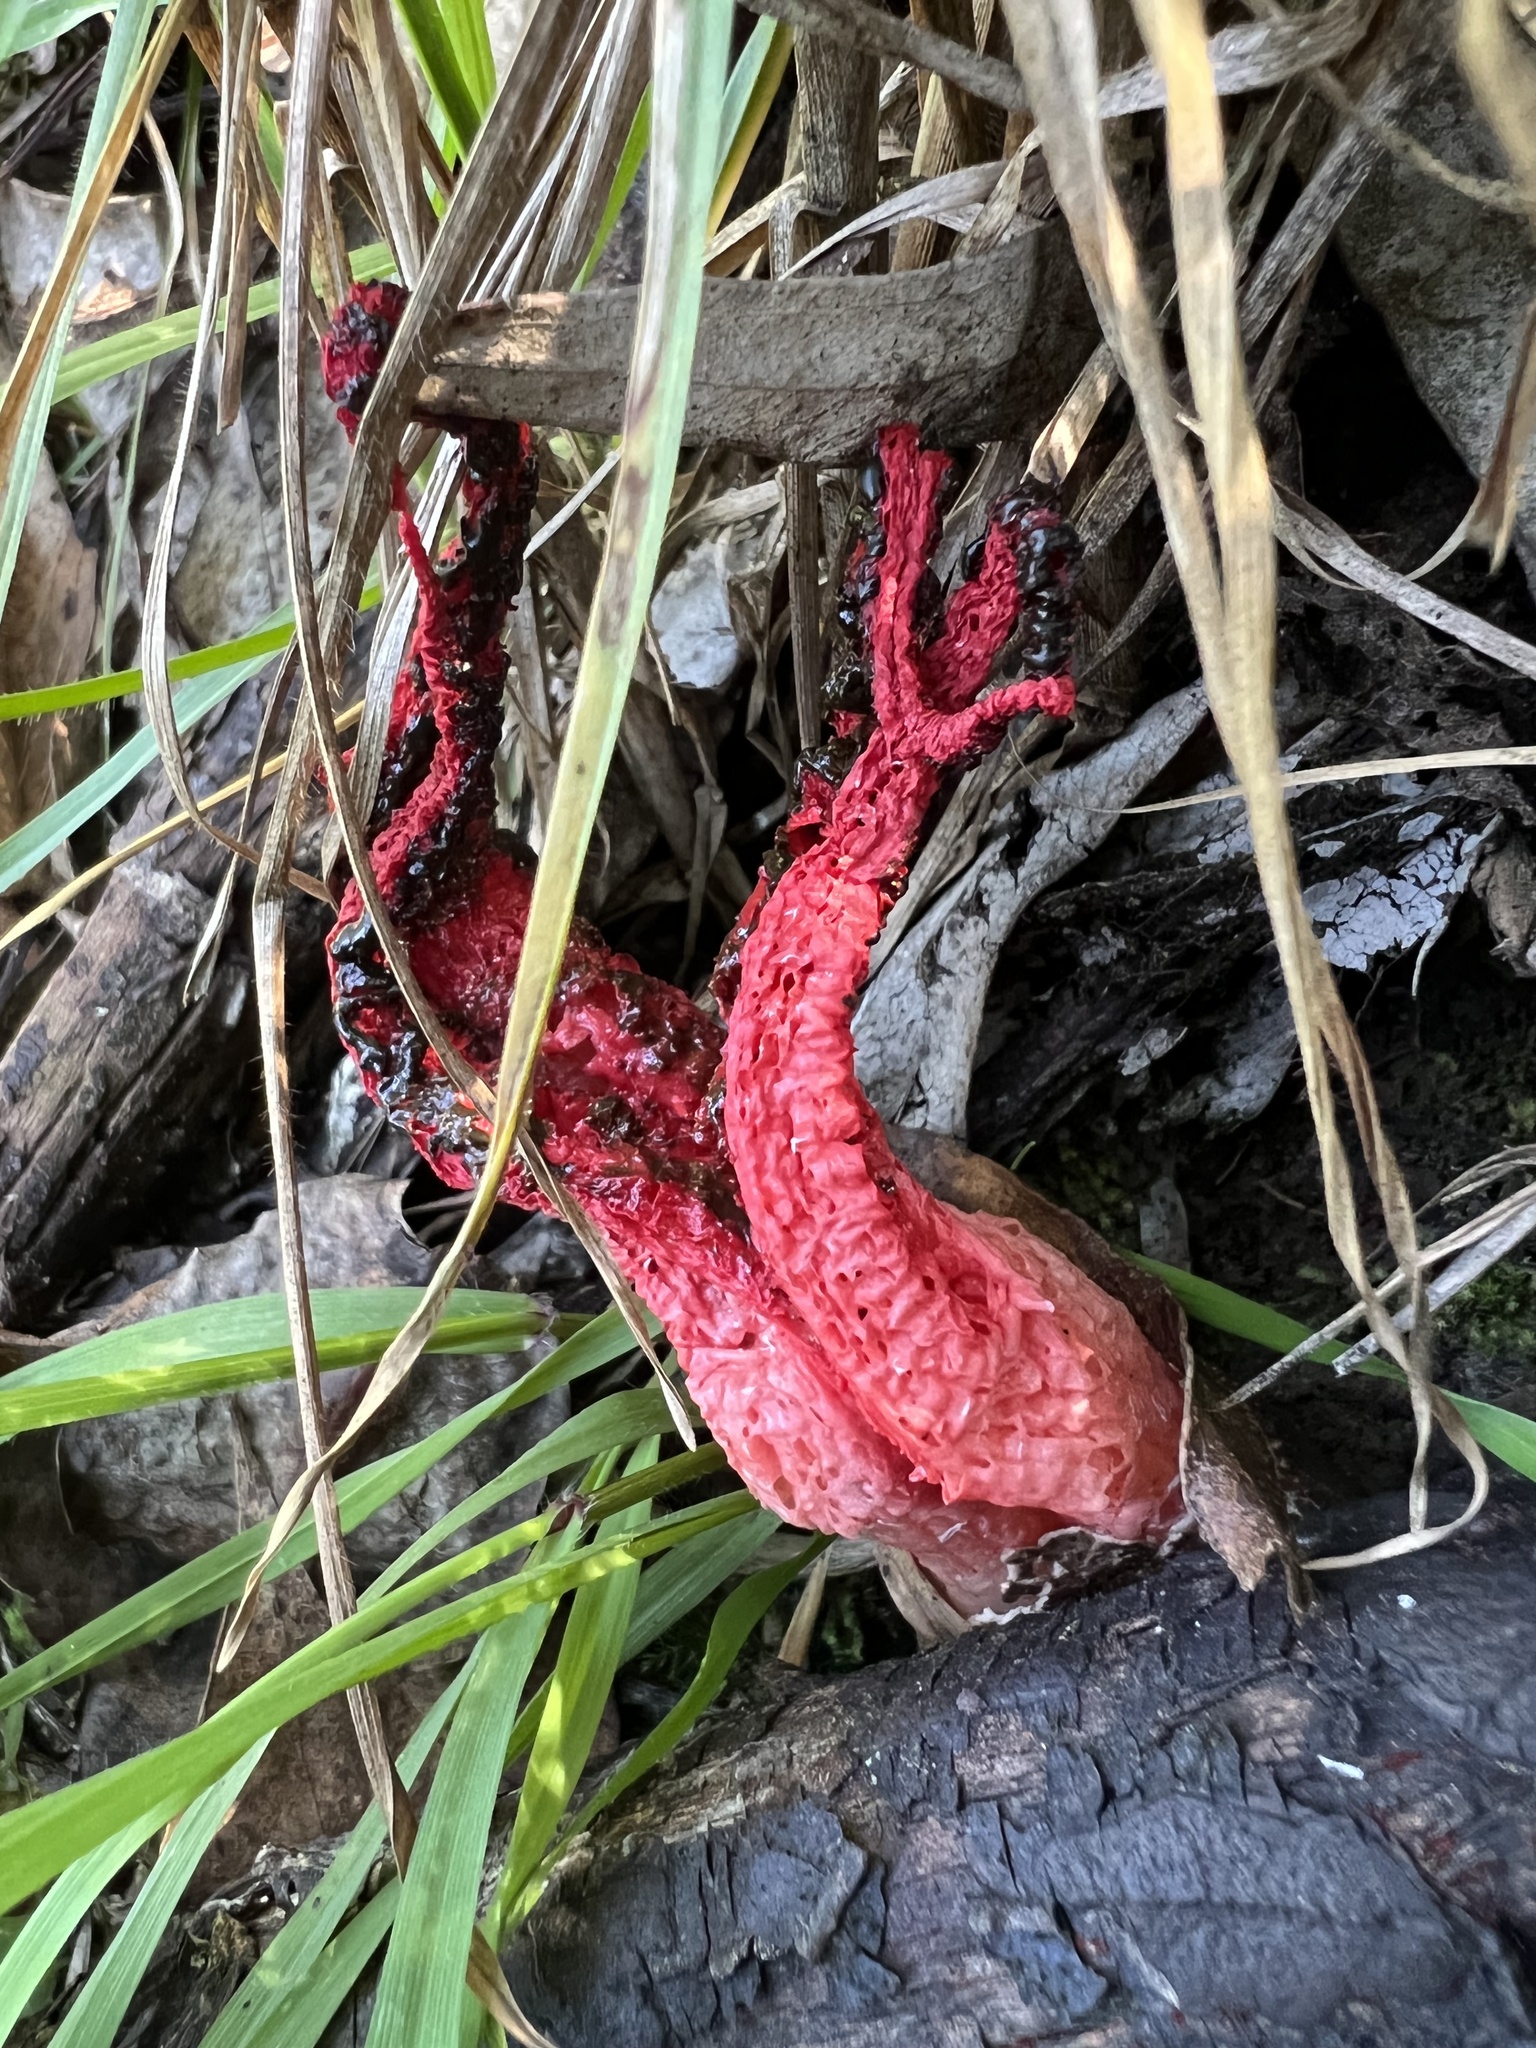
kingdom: Fungi
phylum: Basidiomycota
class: Agaricomycetes
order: Phallales
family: Phallaceae
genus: Clathrus
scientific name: Clathrus archeri
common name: Devil's fingers
